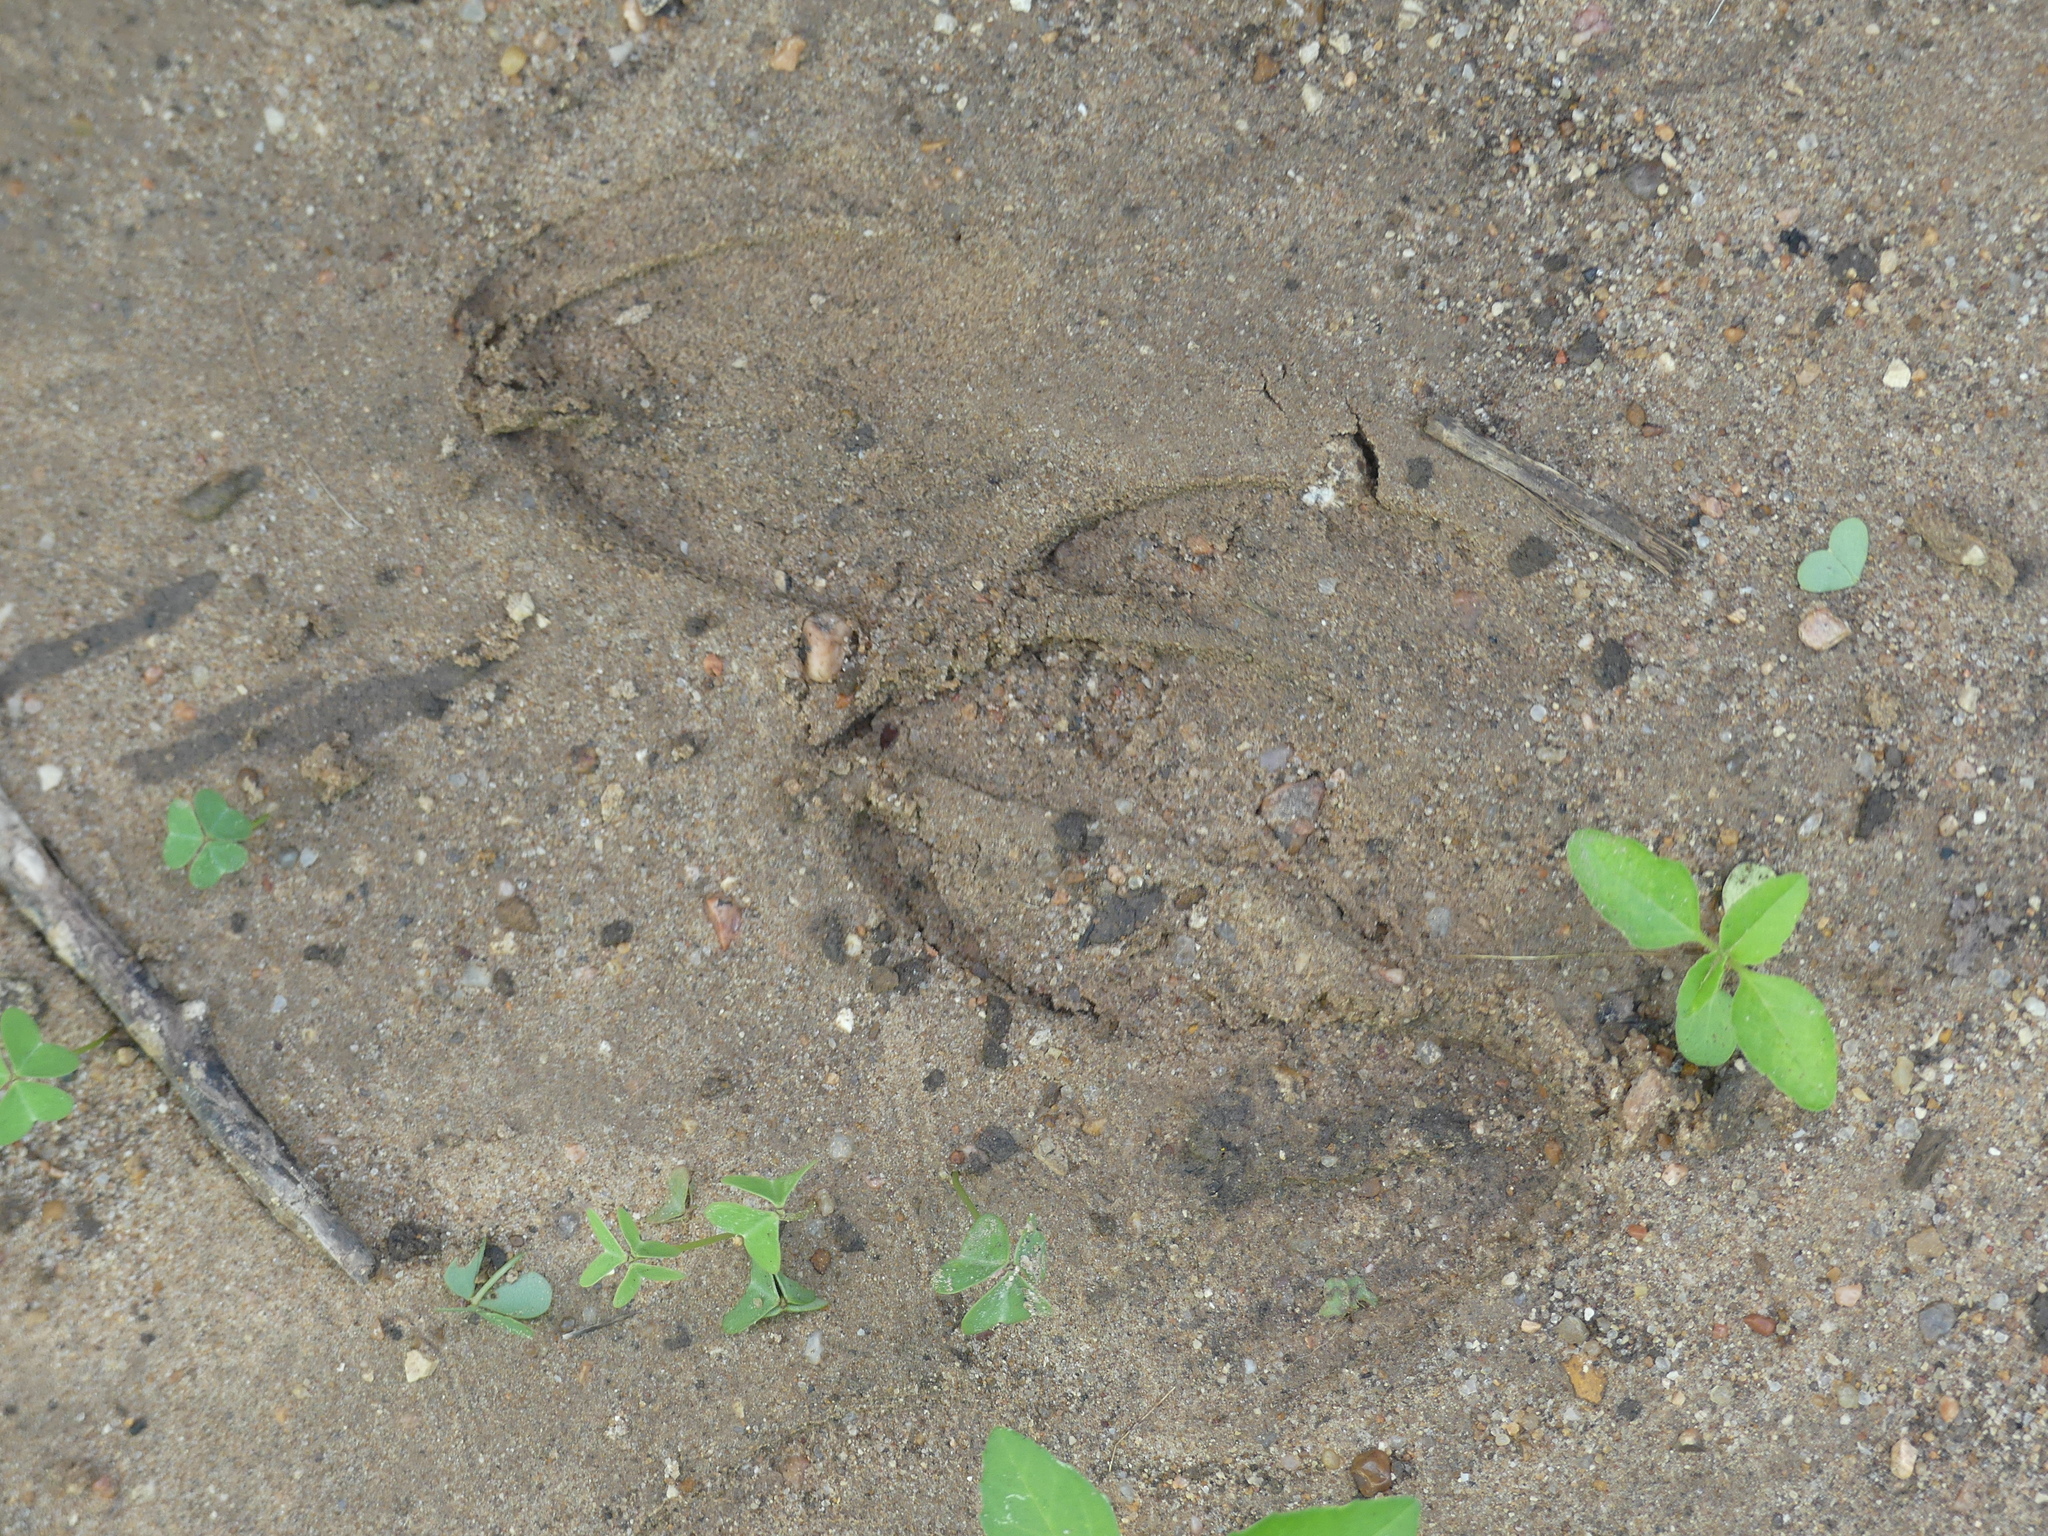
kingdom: Animalia
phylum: Chordata
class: Mammalia
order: Artiodactyla
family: Cervidae
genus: Odocoileus
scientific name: Odocoileus virginianus
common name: White-tailed deer
